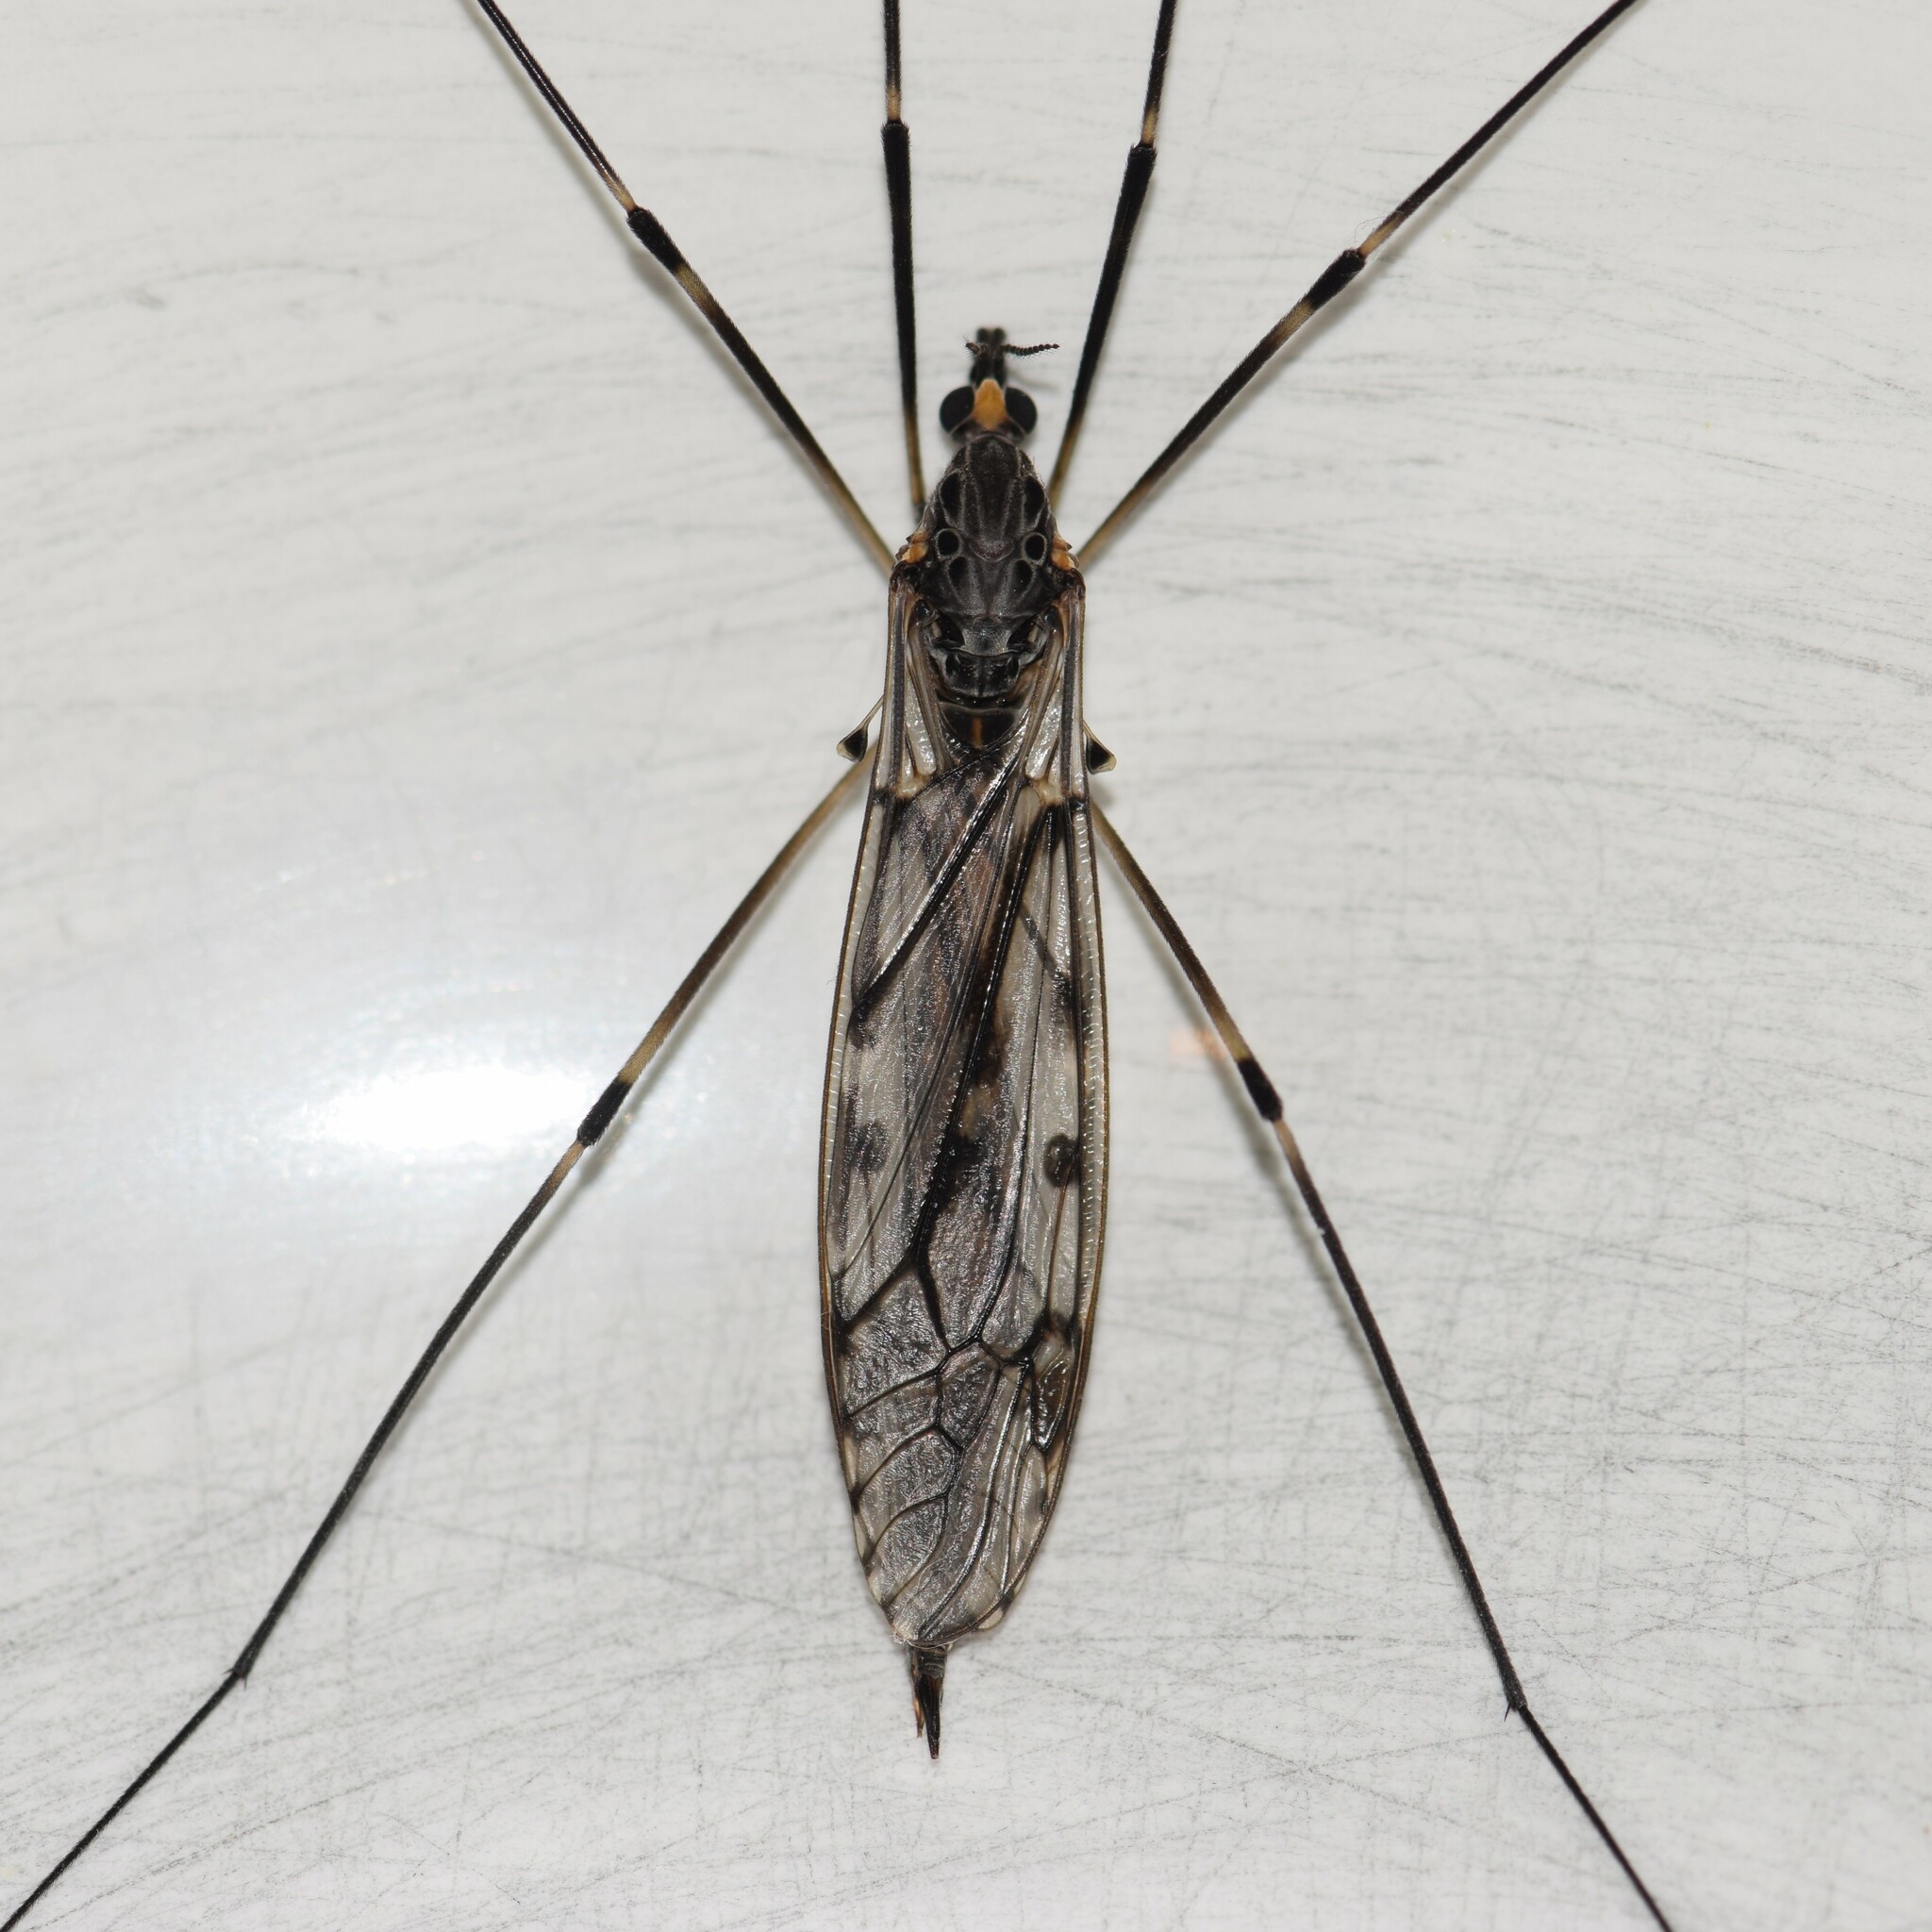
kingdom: Animalia
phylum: Arthropoda
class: Insecta
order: Diptera
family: Tipulidae
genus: Tipula
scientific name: Tipula abdominalis
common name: Giant crane fly
